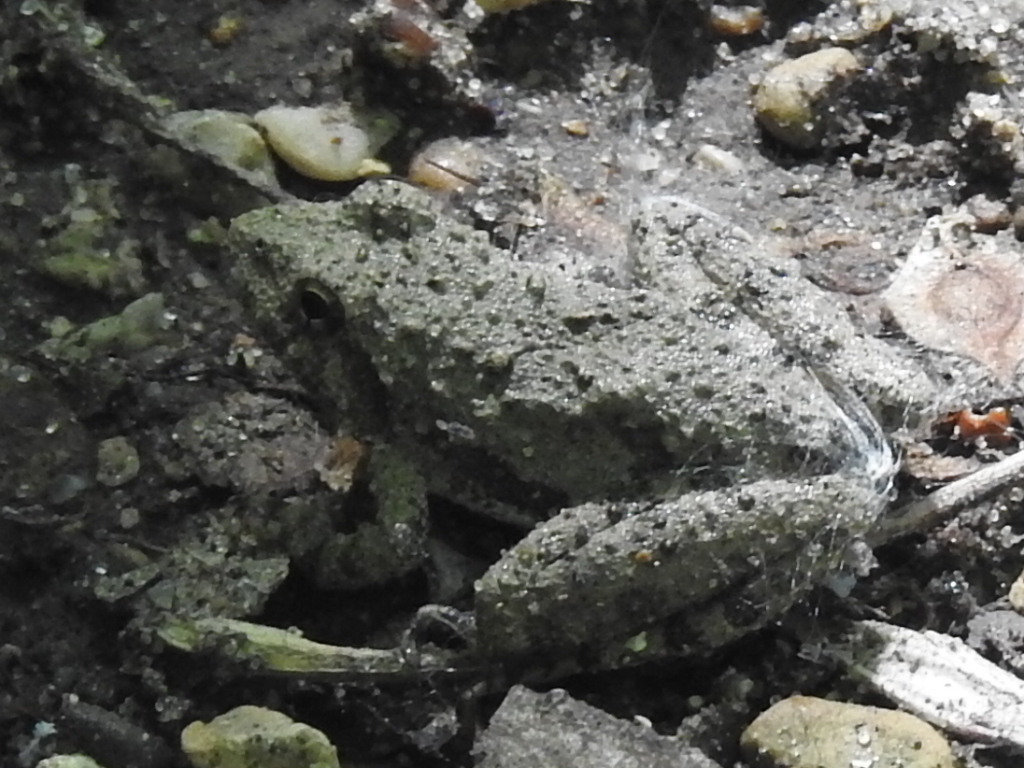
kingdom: Animalia
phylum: Chordata
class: Amphibia
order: Anura
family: Hylidae
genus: Acris
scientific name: Acris blanchardi
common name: Blanchard's cricket frog
